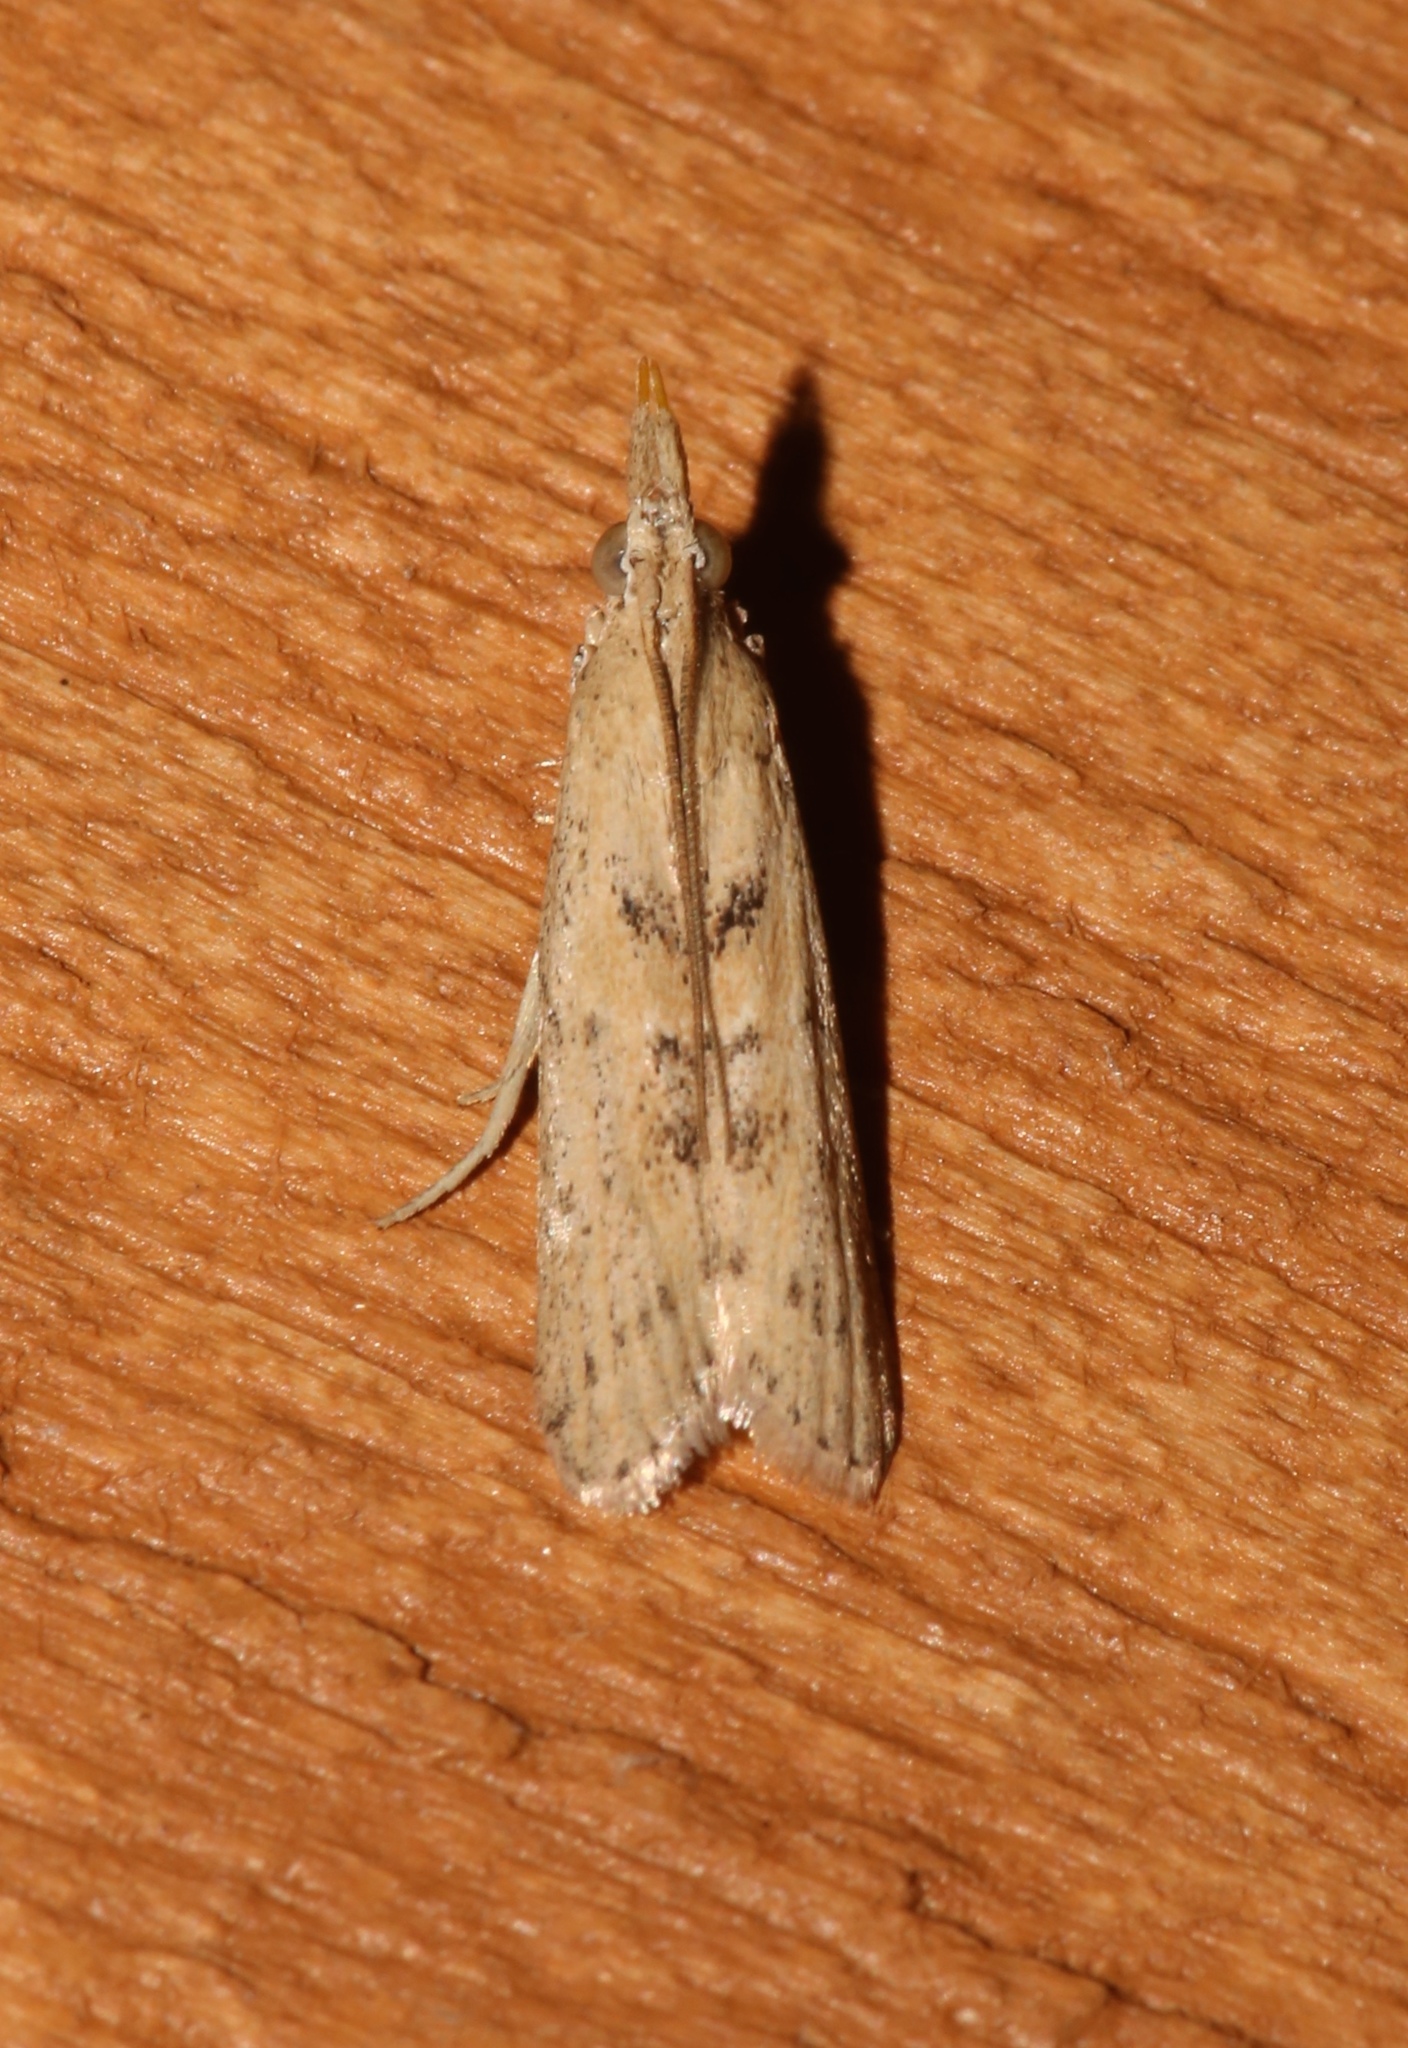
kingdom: Animalia
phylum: Arthropoda
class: Insecta
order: Lepidoptera
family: Pyralidae
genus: Macrorrhinia
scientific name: Macrorrhinia endonephele
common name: Alligator weed stemborer moth
